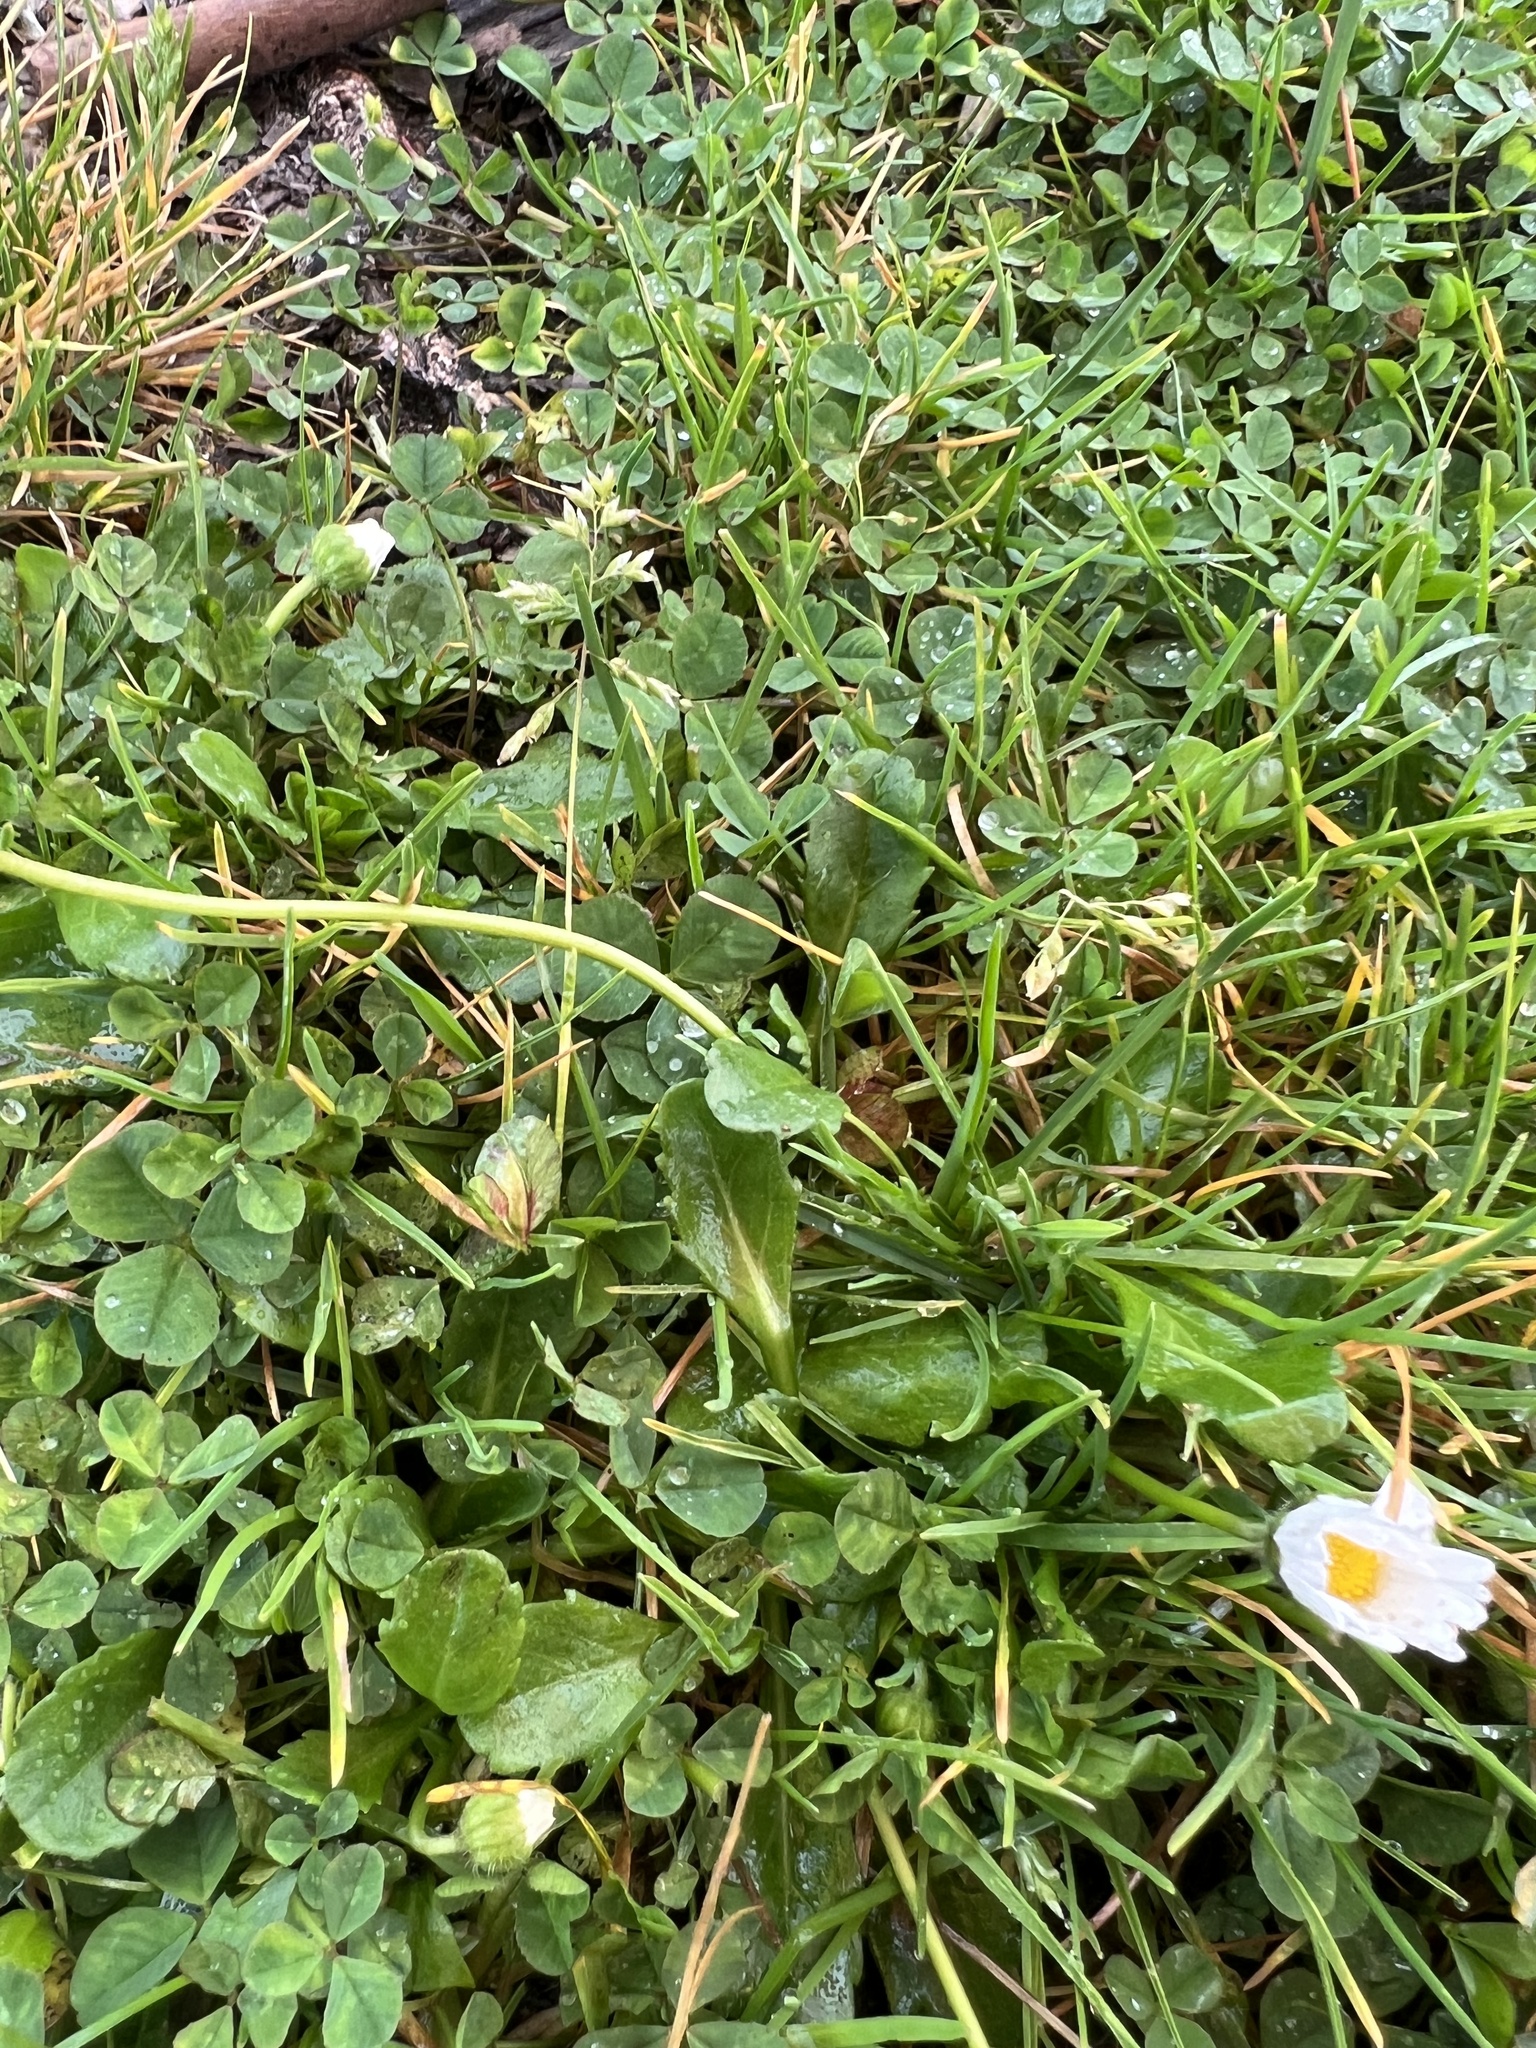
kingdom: Plantae
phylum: Tracheophyta
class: Magnoliopsida
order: Asterales
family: Asteraceae
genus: Bellis
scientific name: Bellis perennis
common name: Lawndaisy
